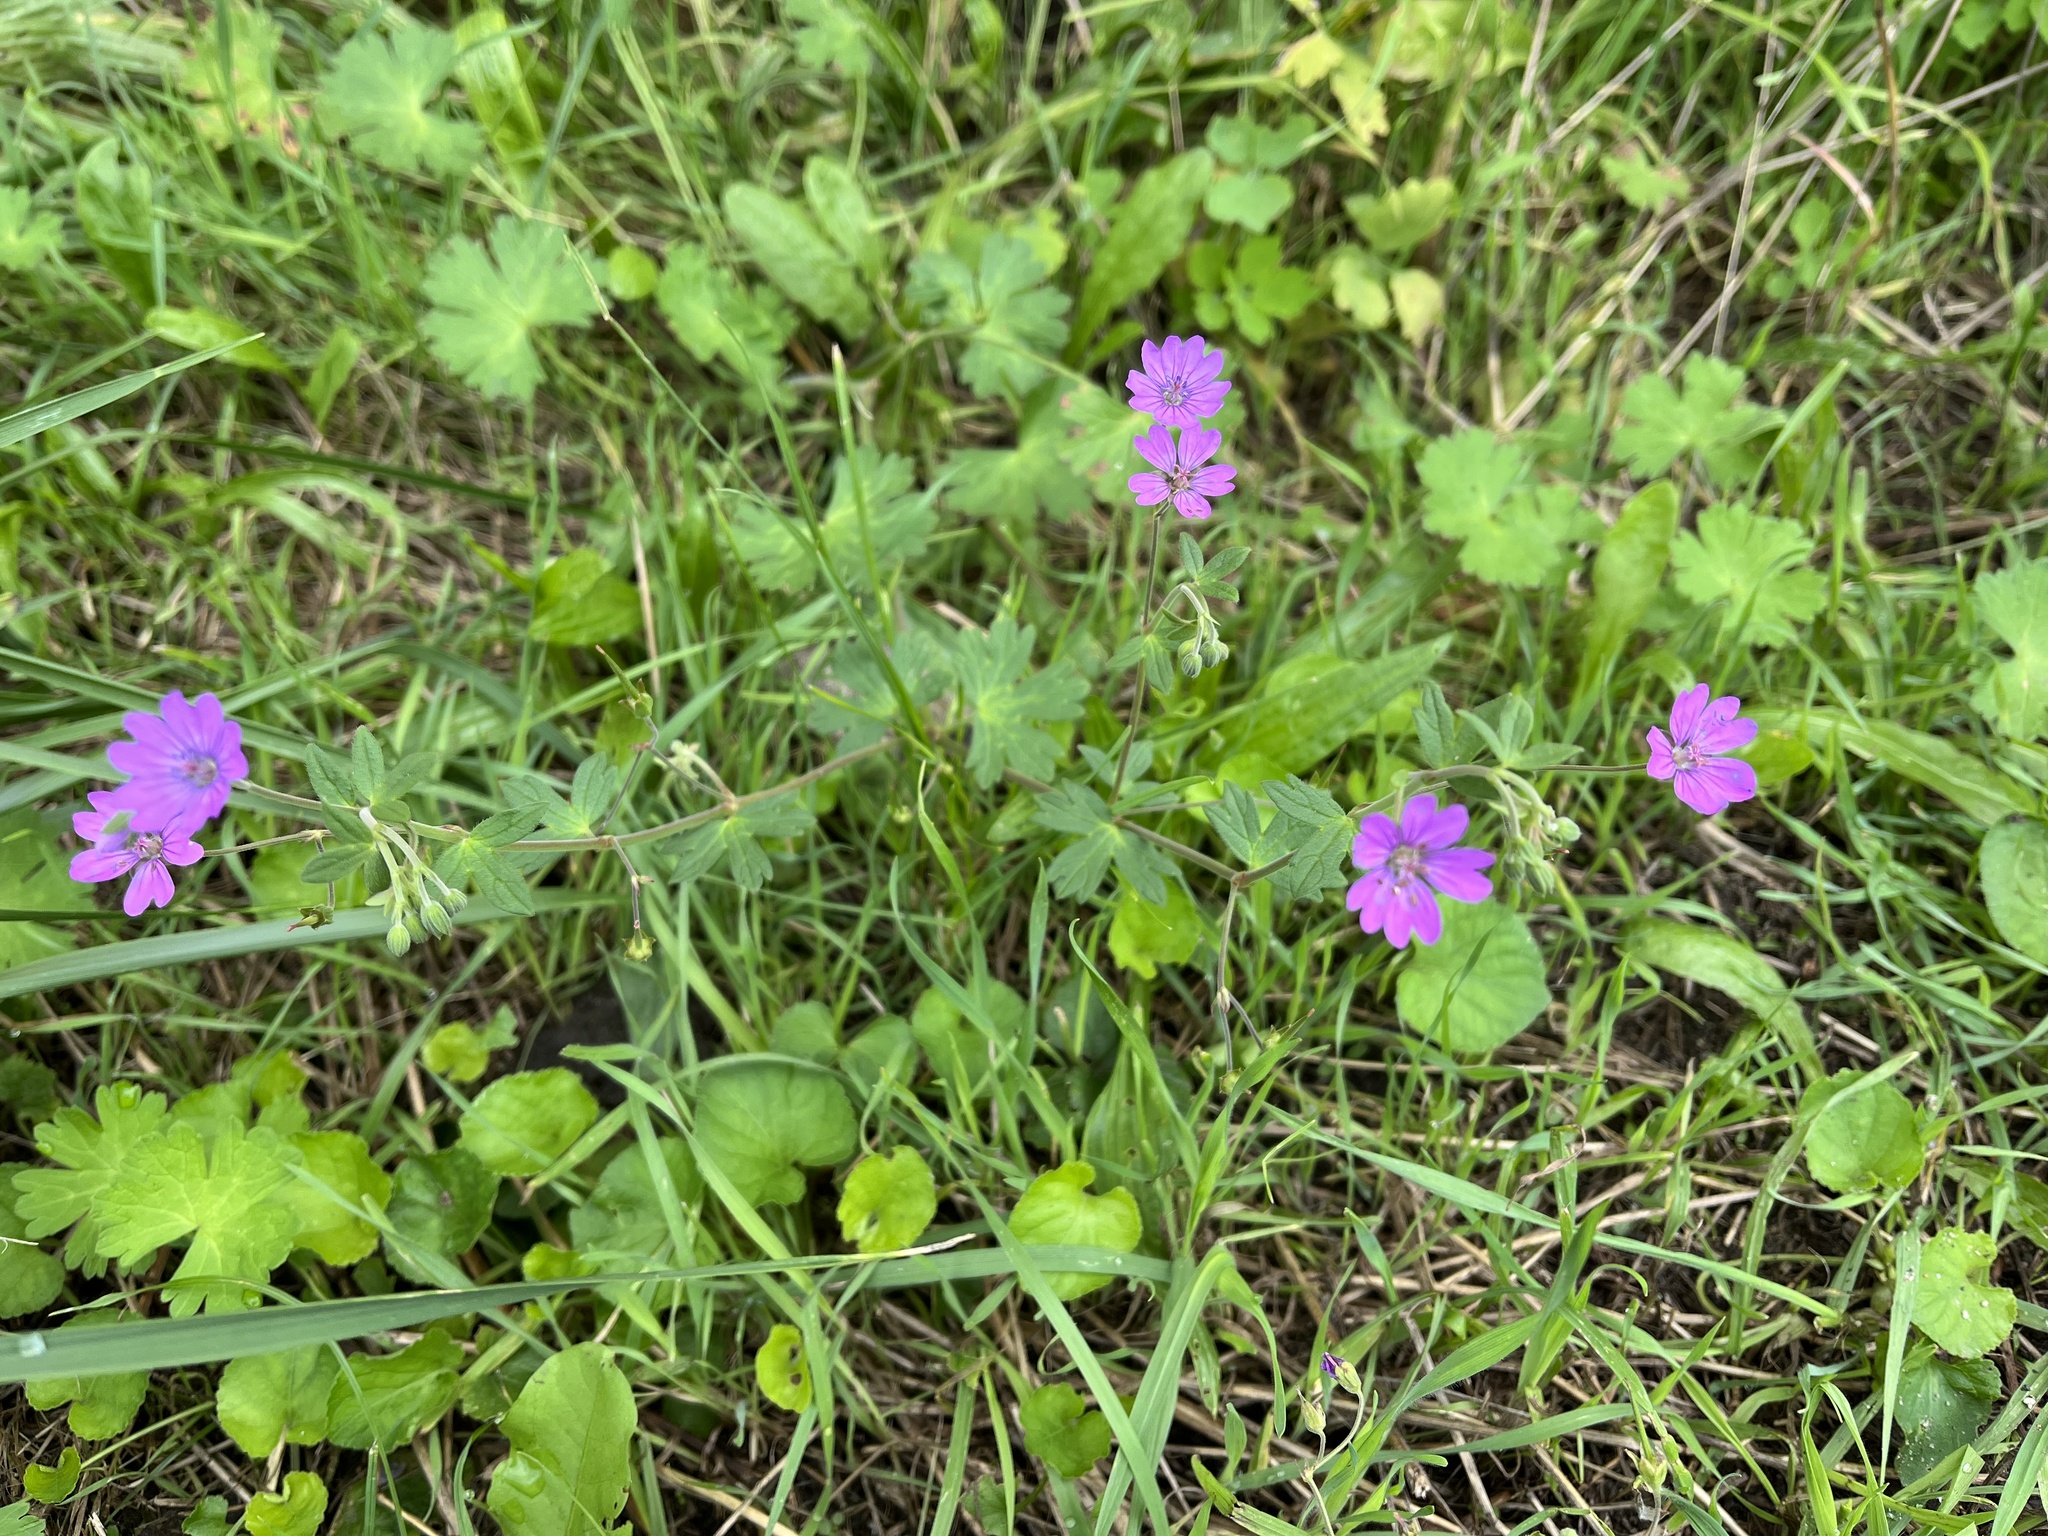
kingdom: Plantae
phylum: Tracheophyta
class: Magnoliopsida
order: Geraniales
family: Geraniaceae
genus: Geranium
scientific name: Geranium pyrenaicum
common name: Hedgerow crane's-bill
